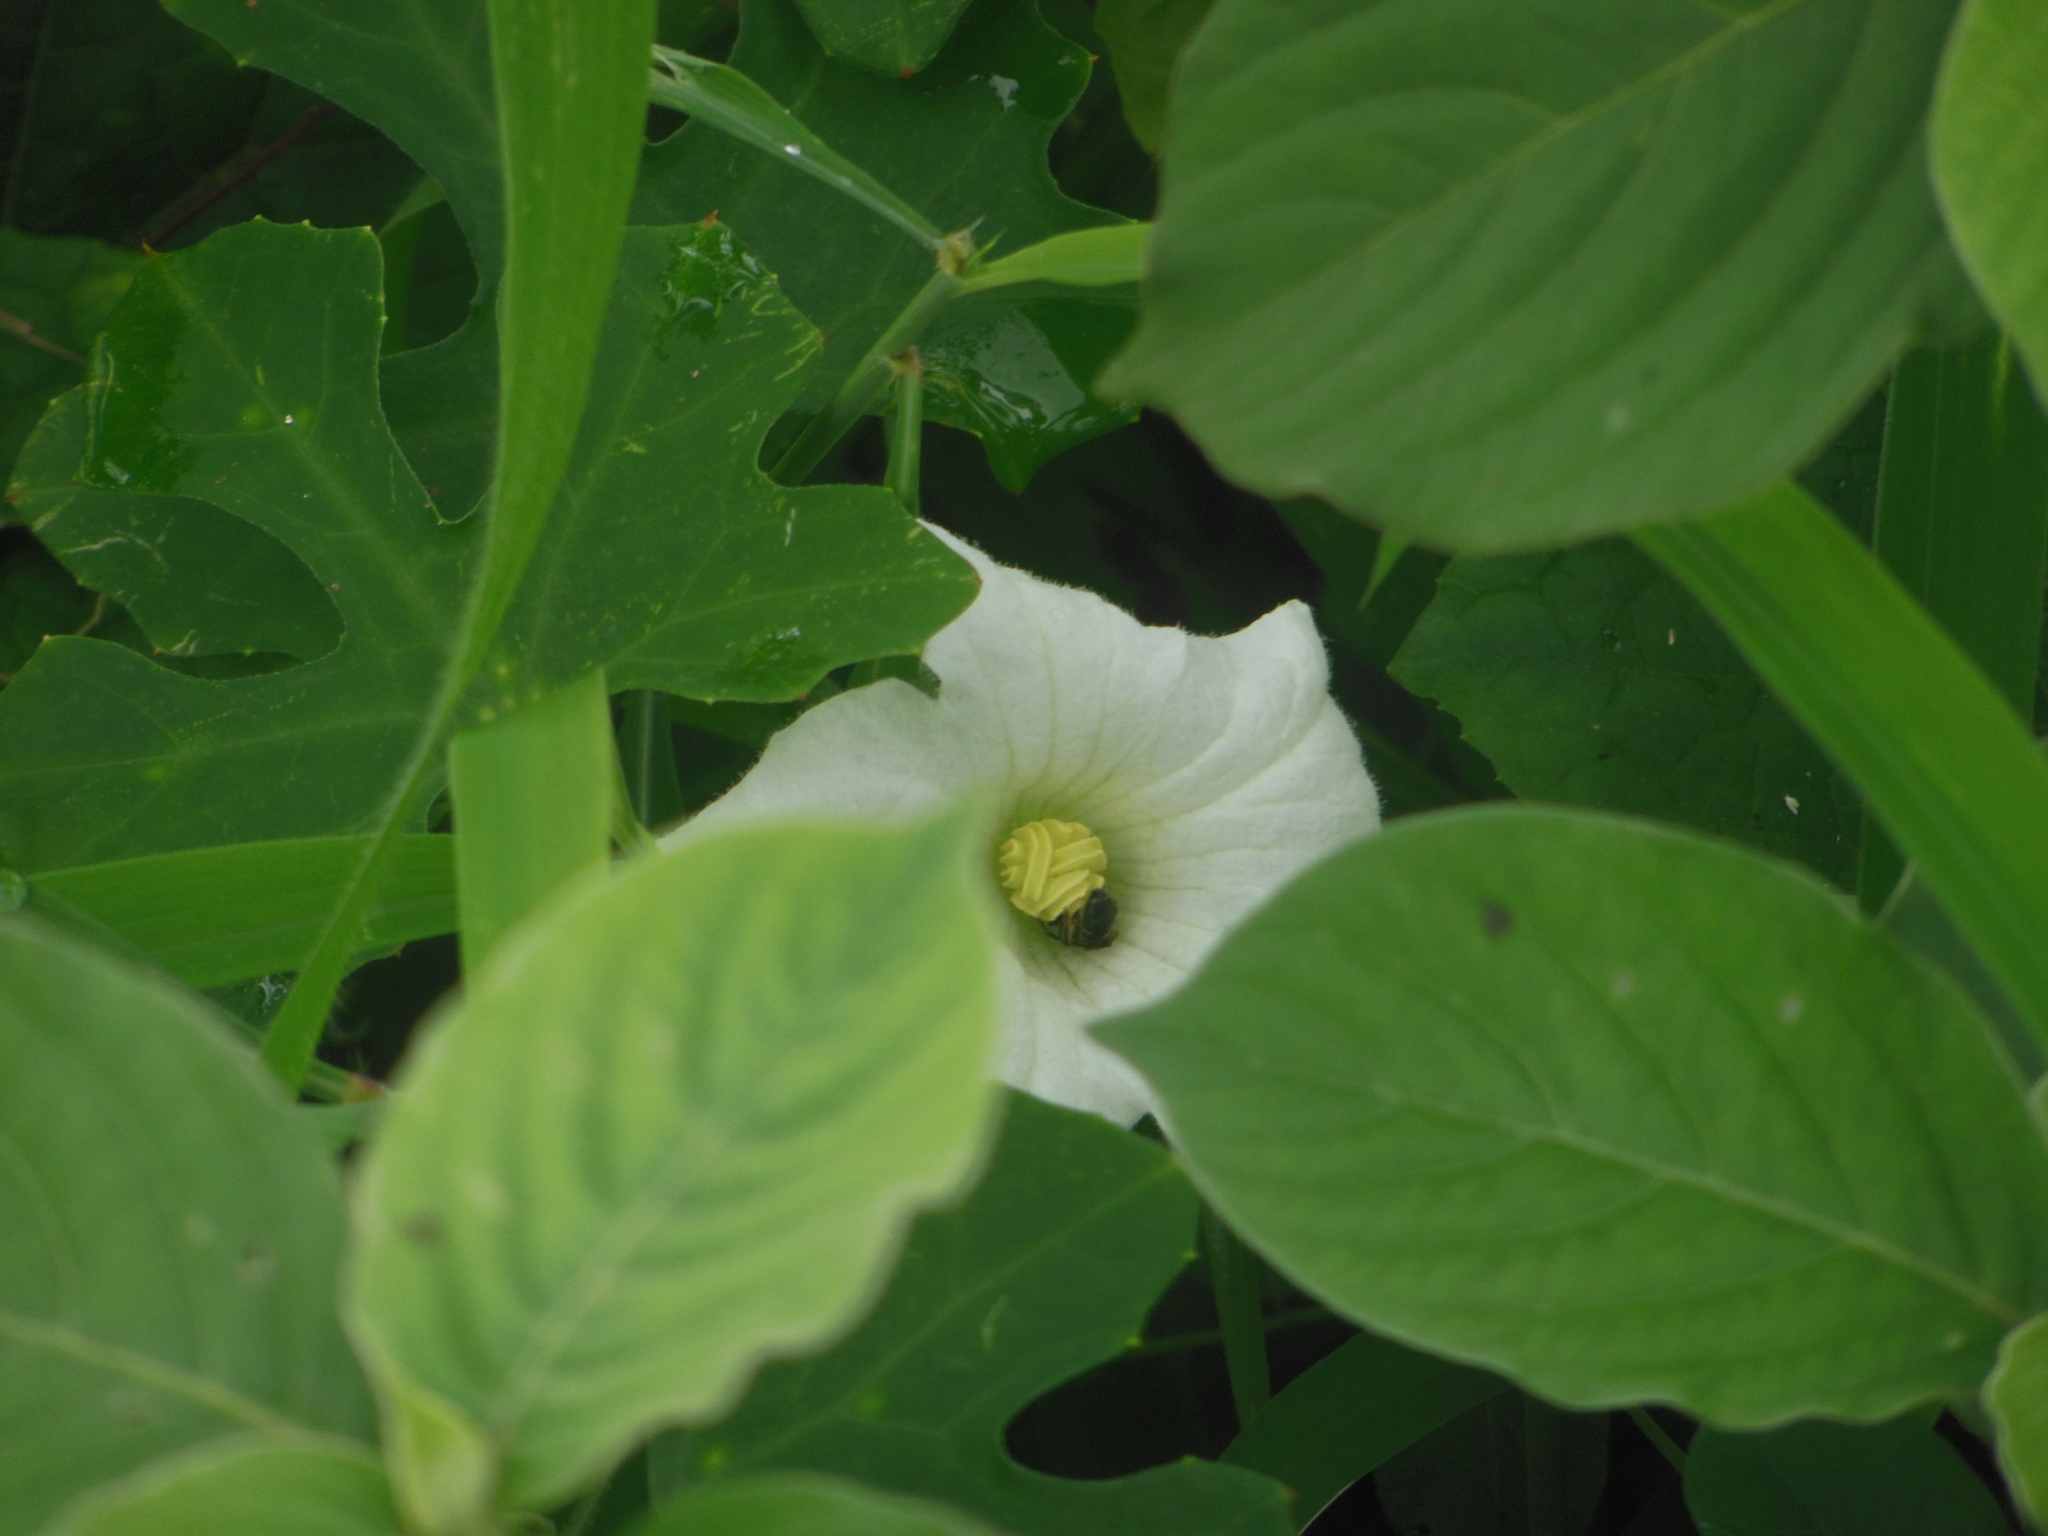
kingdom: Plantae
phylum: Tracheophyta
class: Magnoliopsida
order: Cucurbitales
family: Cucurbitaceae
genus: Coccinia
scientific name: Coccinia grandis
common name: Ivy gourd
